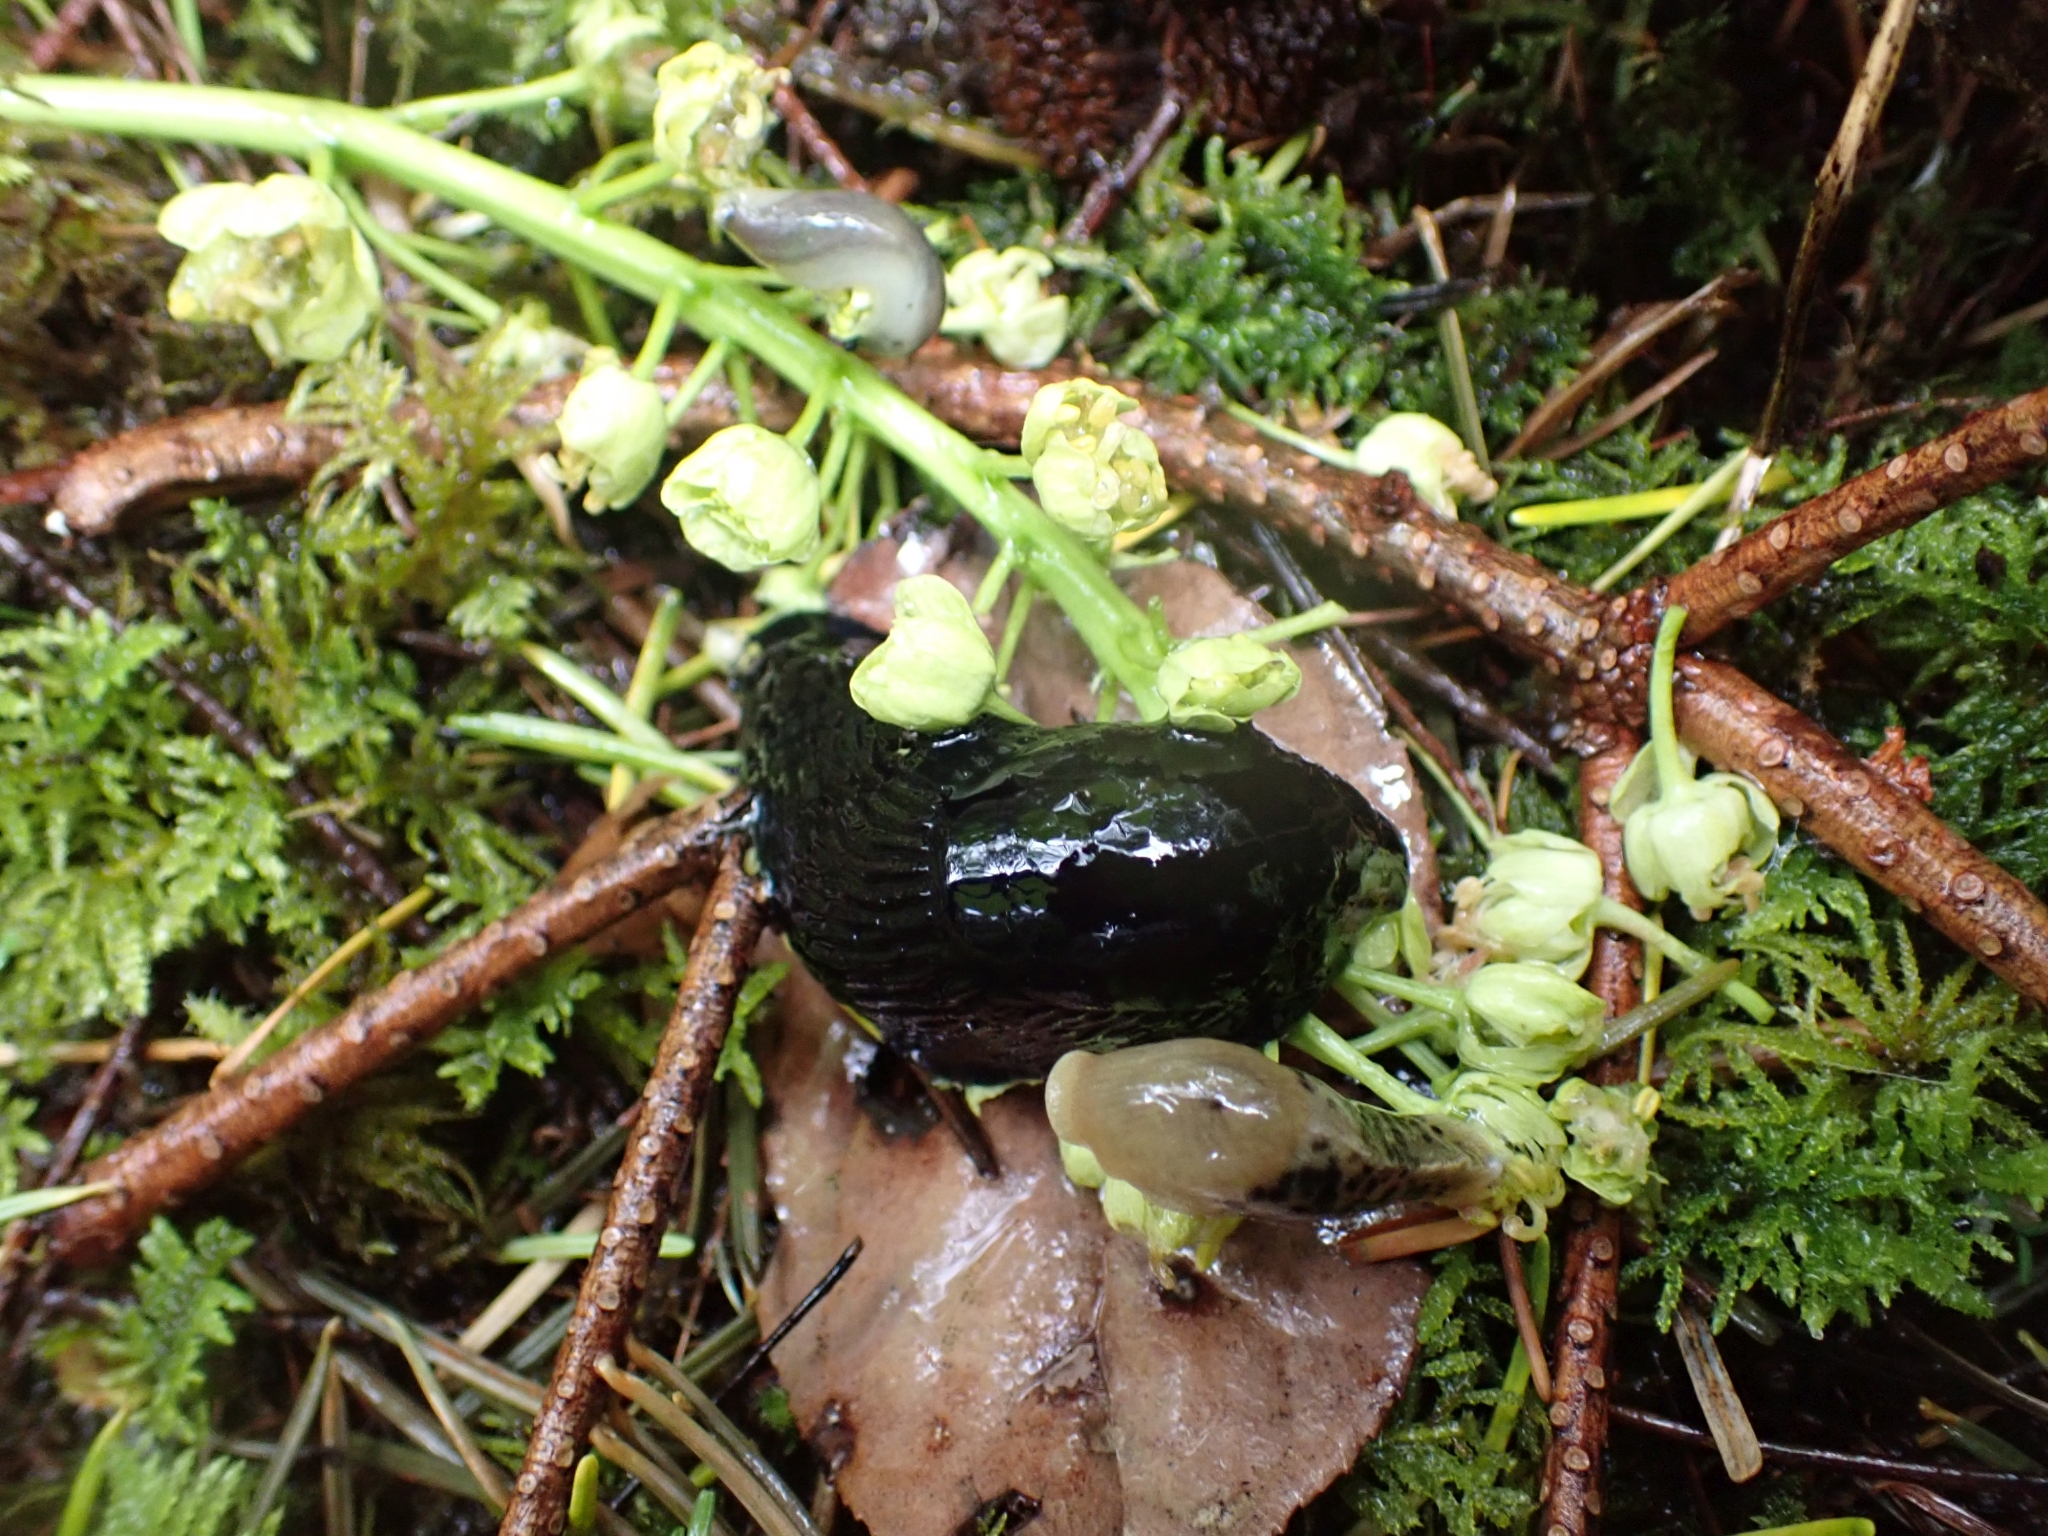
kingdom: Animalia
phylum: Mollusca
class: Gastropoda
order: Stylommatophora
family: Arionidae
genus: Arion
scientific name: Arion
